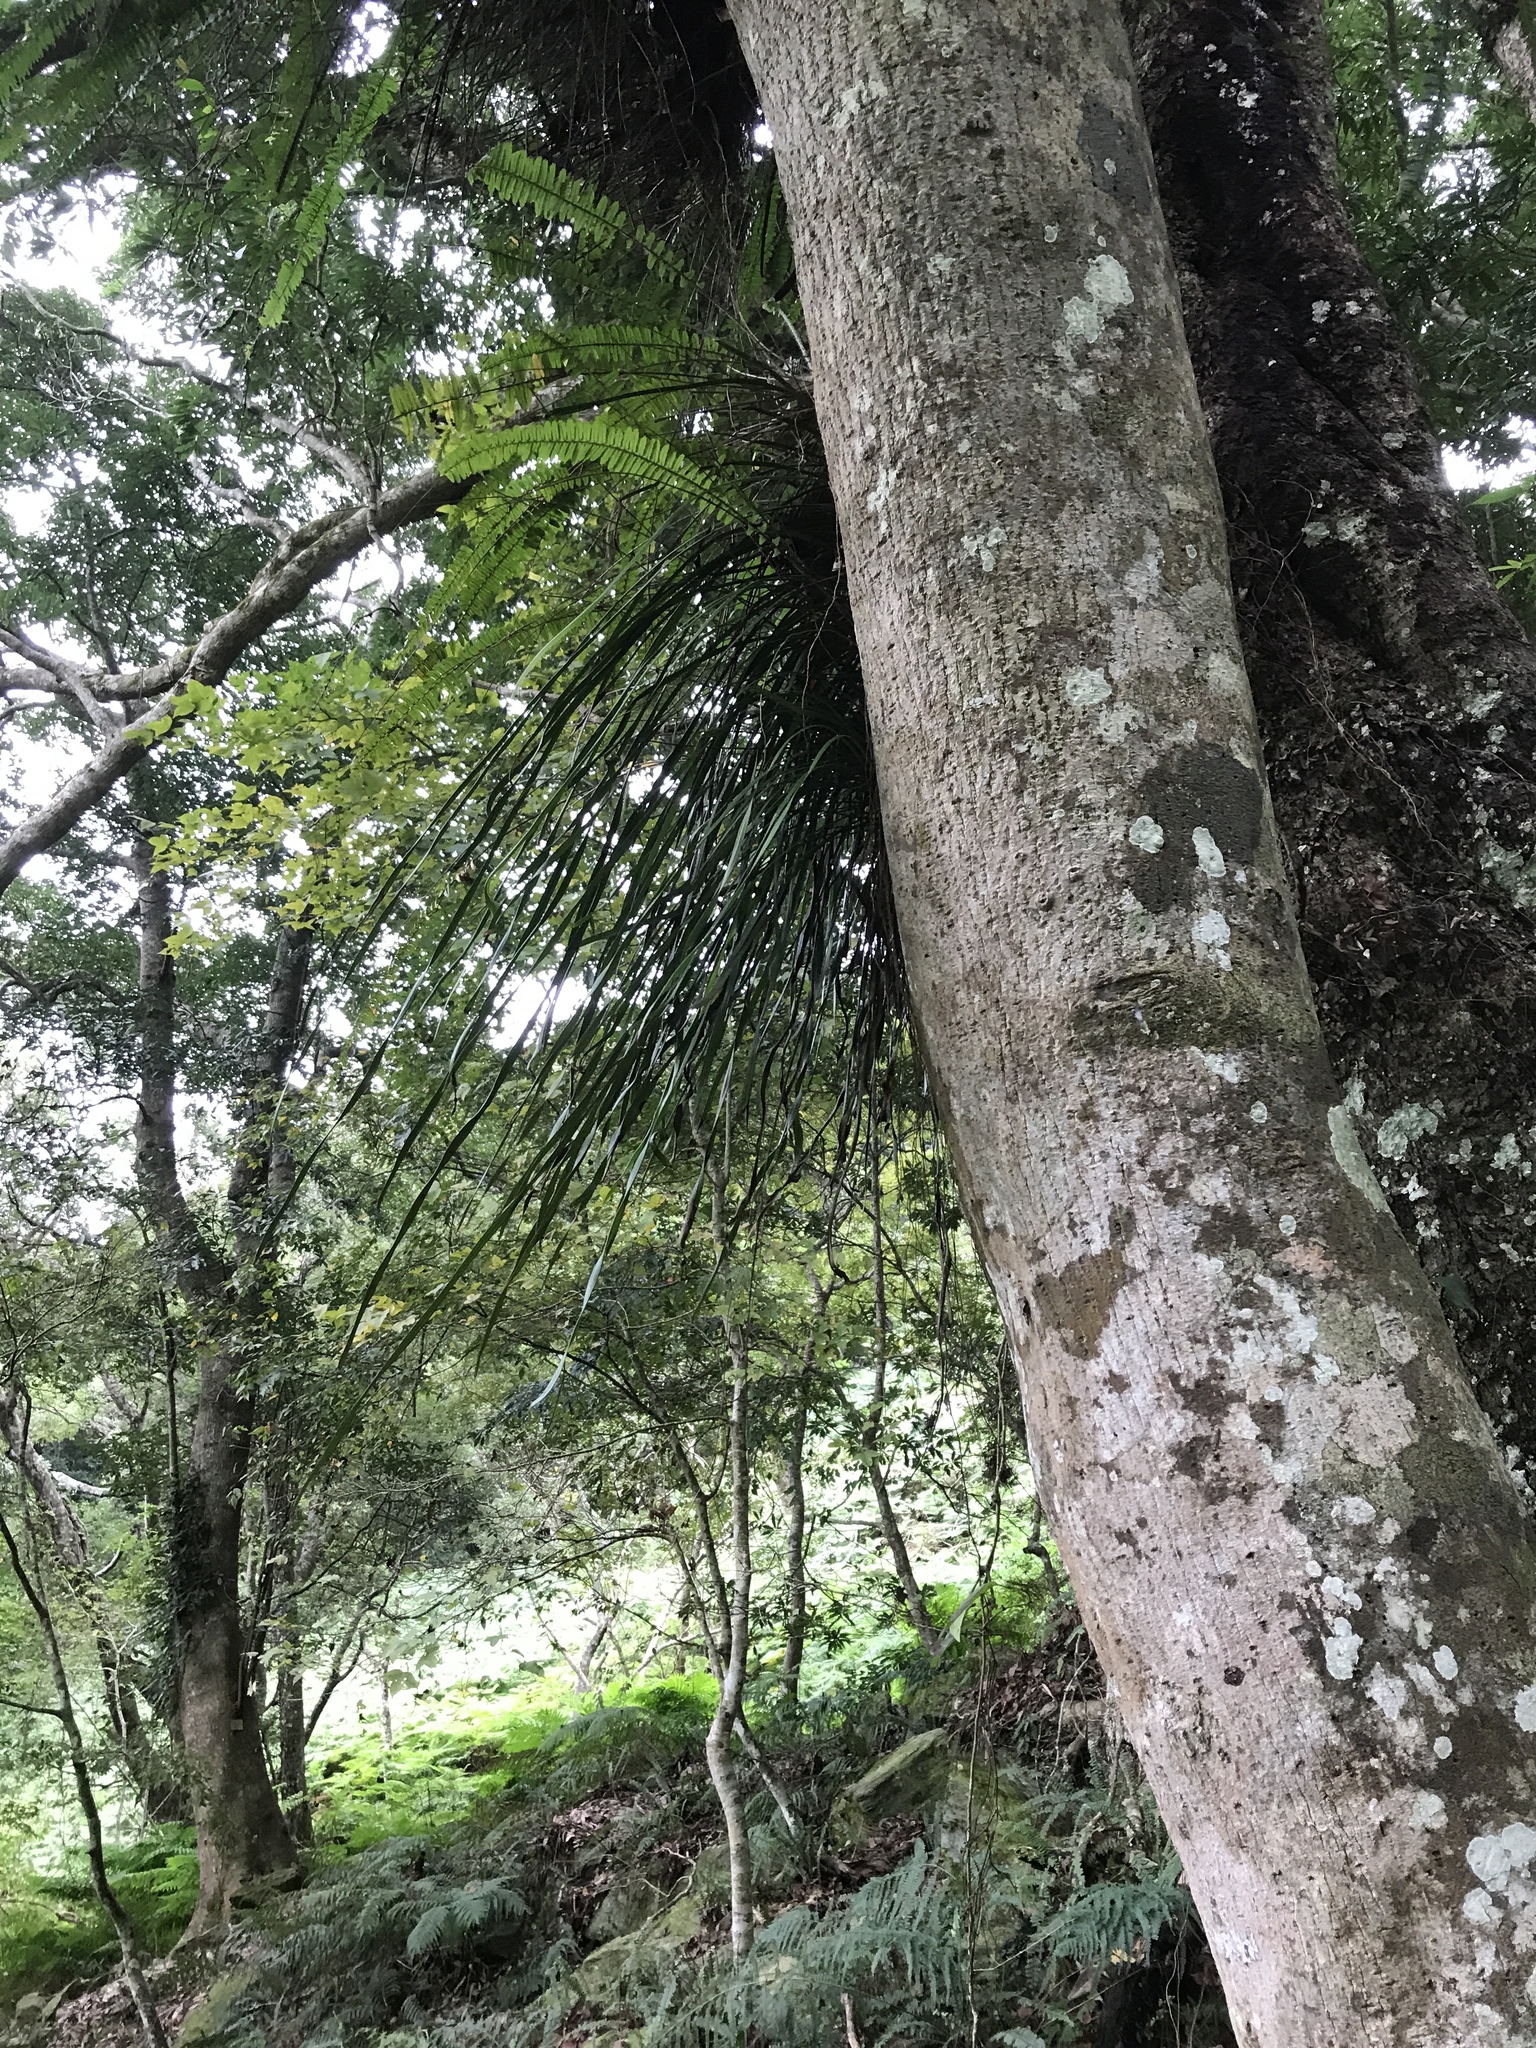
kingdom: Plantae
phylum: Tracheophyta
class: Polypodiopsida
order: Polypodiales
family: Pteridaceae
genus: Haplopteris
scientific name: Haplopteris elongata
